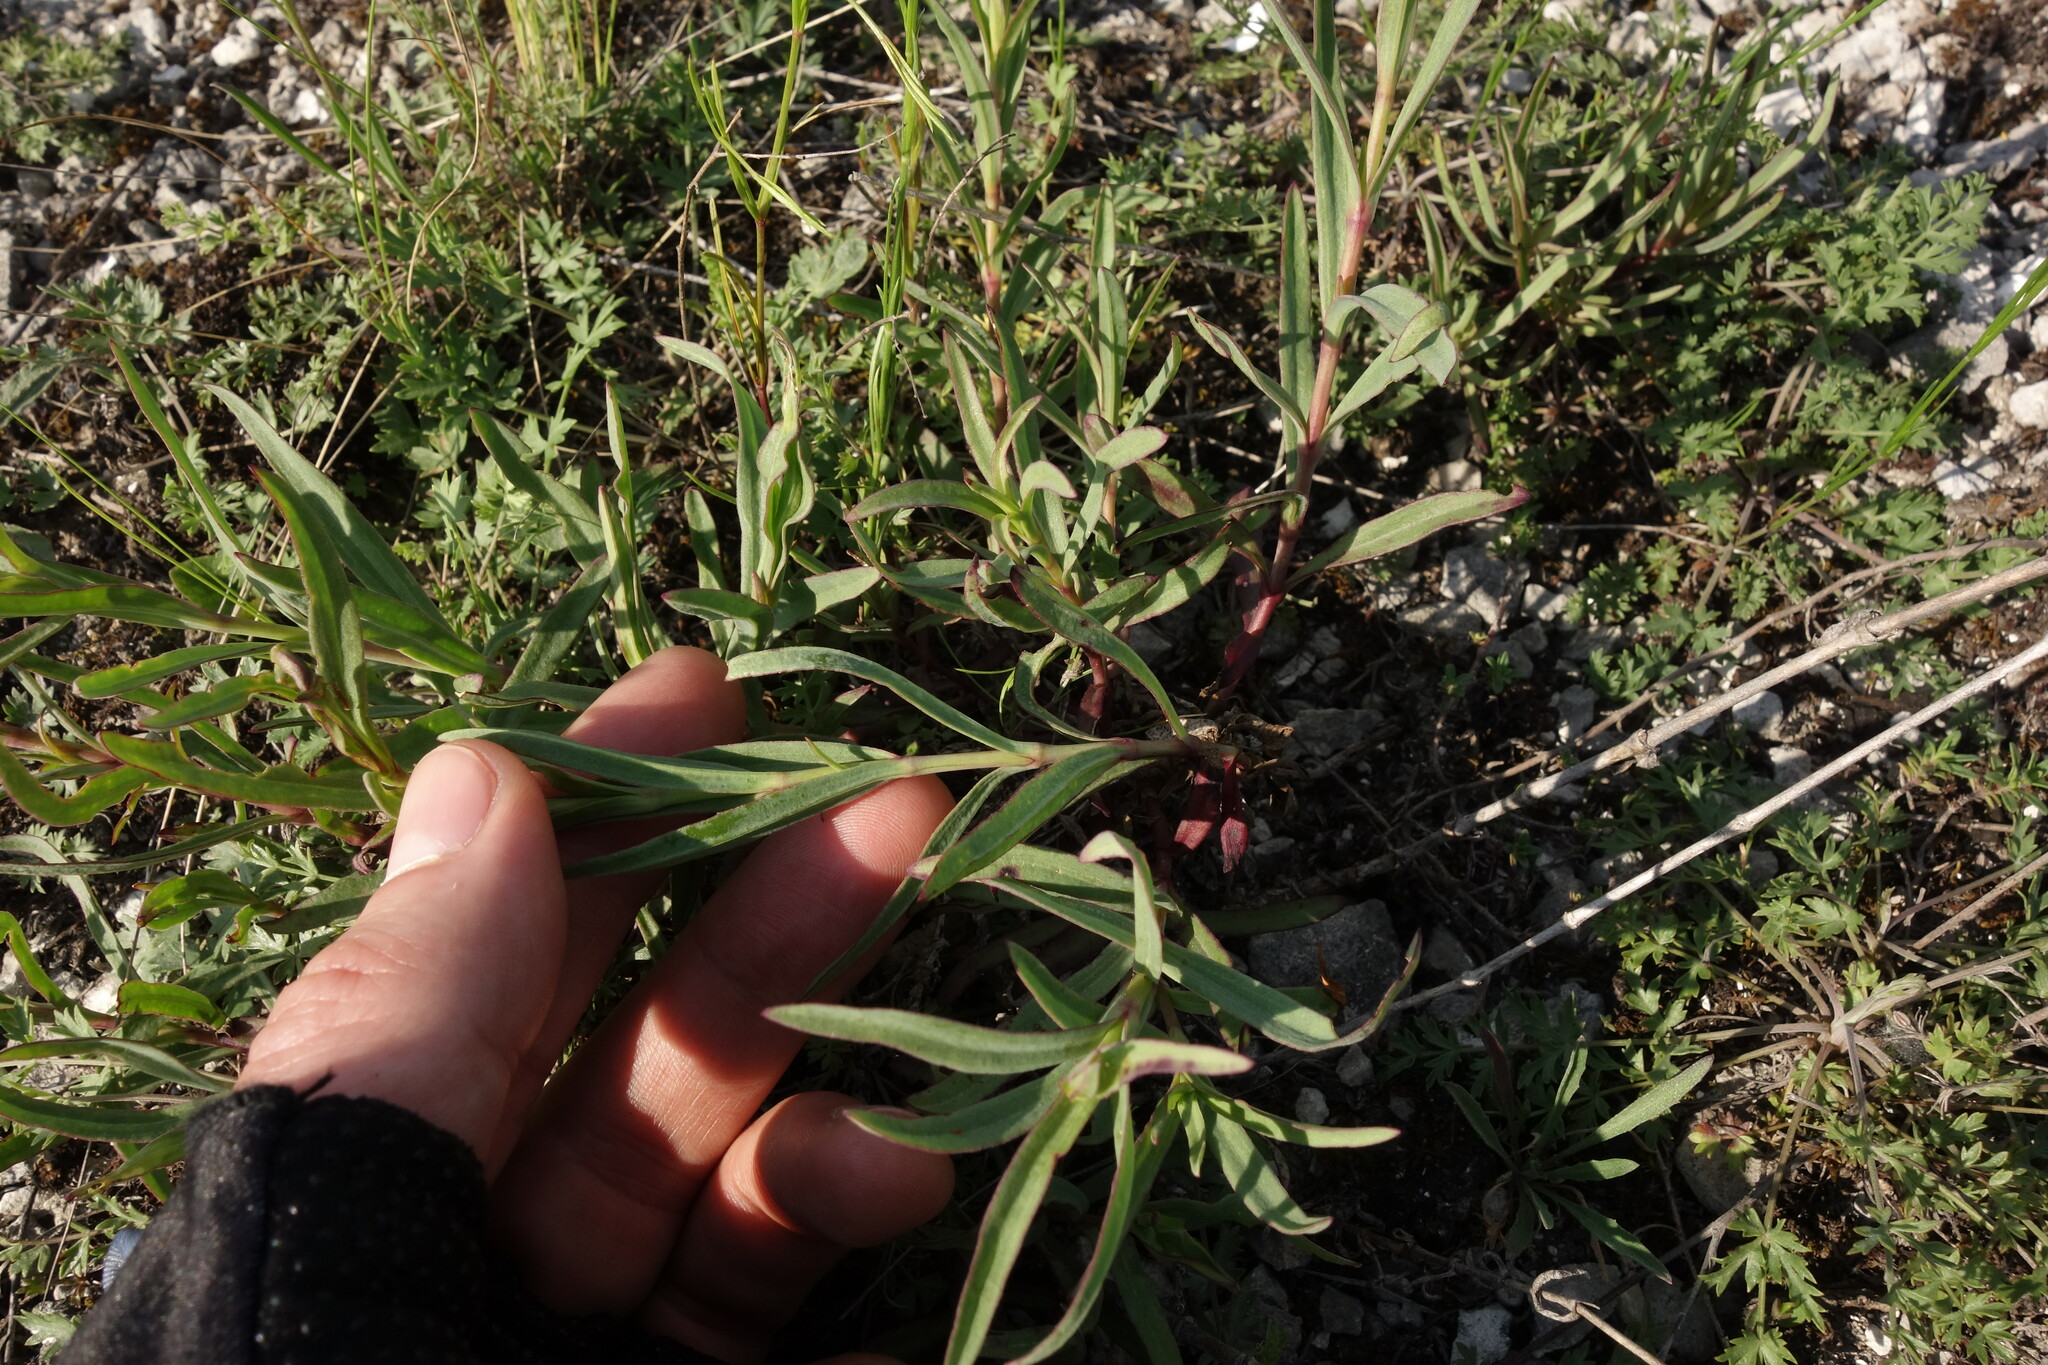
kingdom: Plantae
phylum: Tracheophyta
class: Magnoliopsida
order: Caryophyllales
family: Caryophyllaceae
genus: Gypsophila
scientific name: Gypsophila altissima
